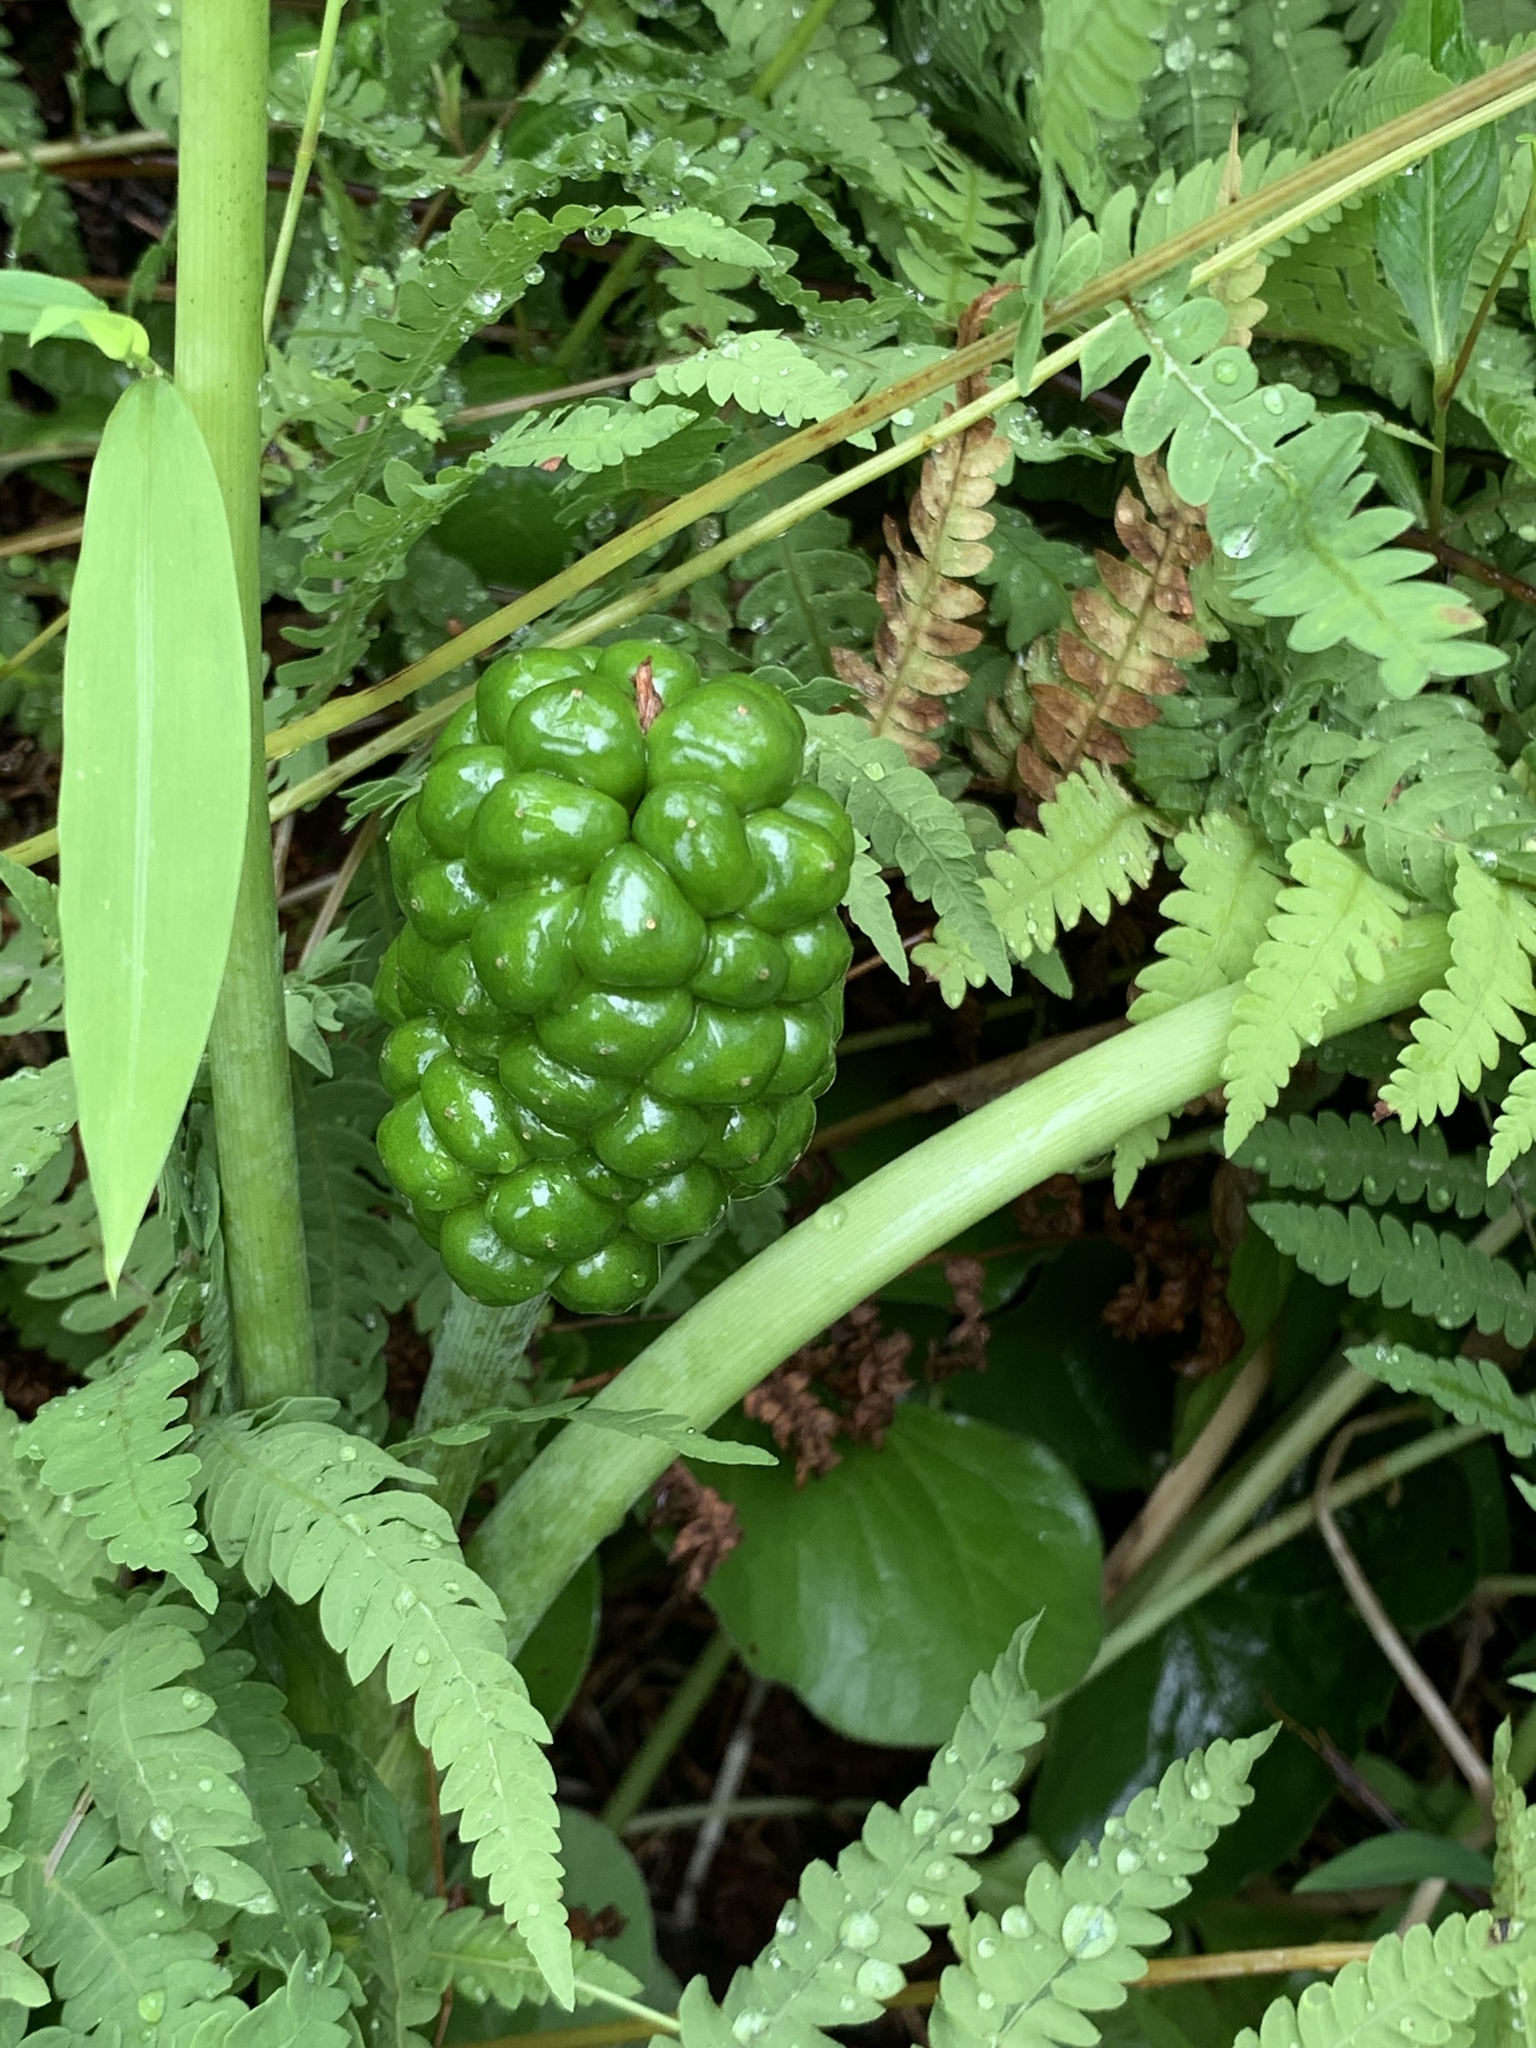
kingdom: Plantae
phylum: Tracheophyta
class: Liliopsida
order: Alismatales
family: Araceae
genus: Arisaema
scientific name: Arisaema triphyllum
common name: Jack-in-the-pulpit
